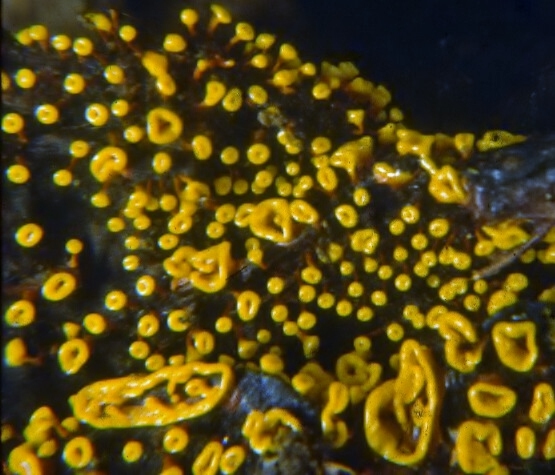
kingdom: Protozoa
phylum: Mycetozoa
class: Myxomycetes
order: Physarales
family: Physaraceae
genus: Physarella
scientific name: Physarella oblonga
